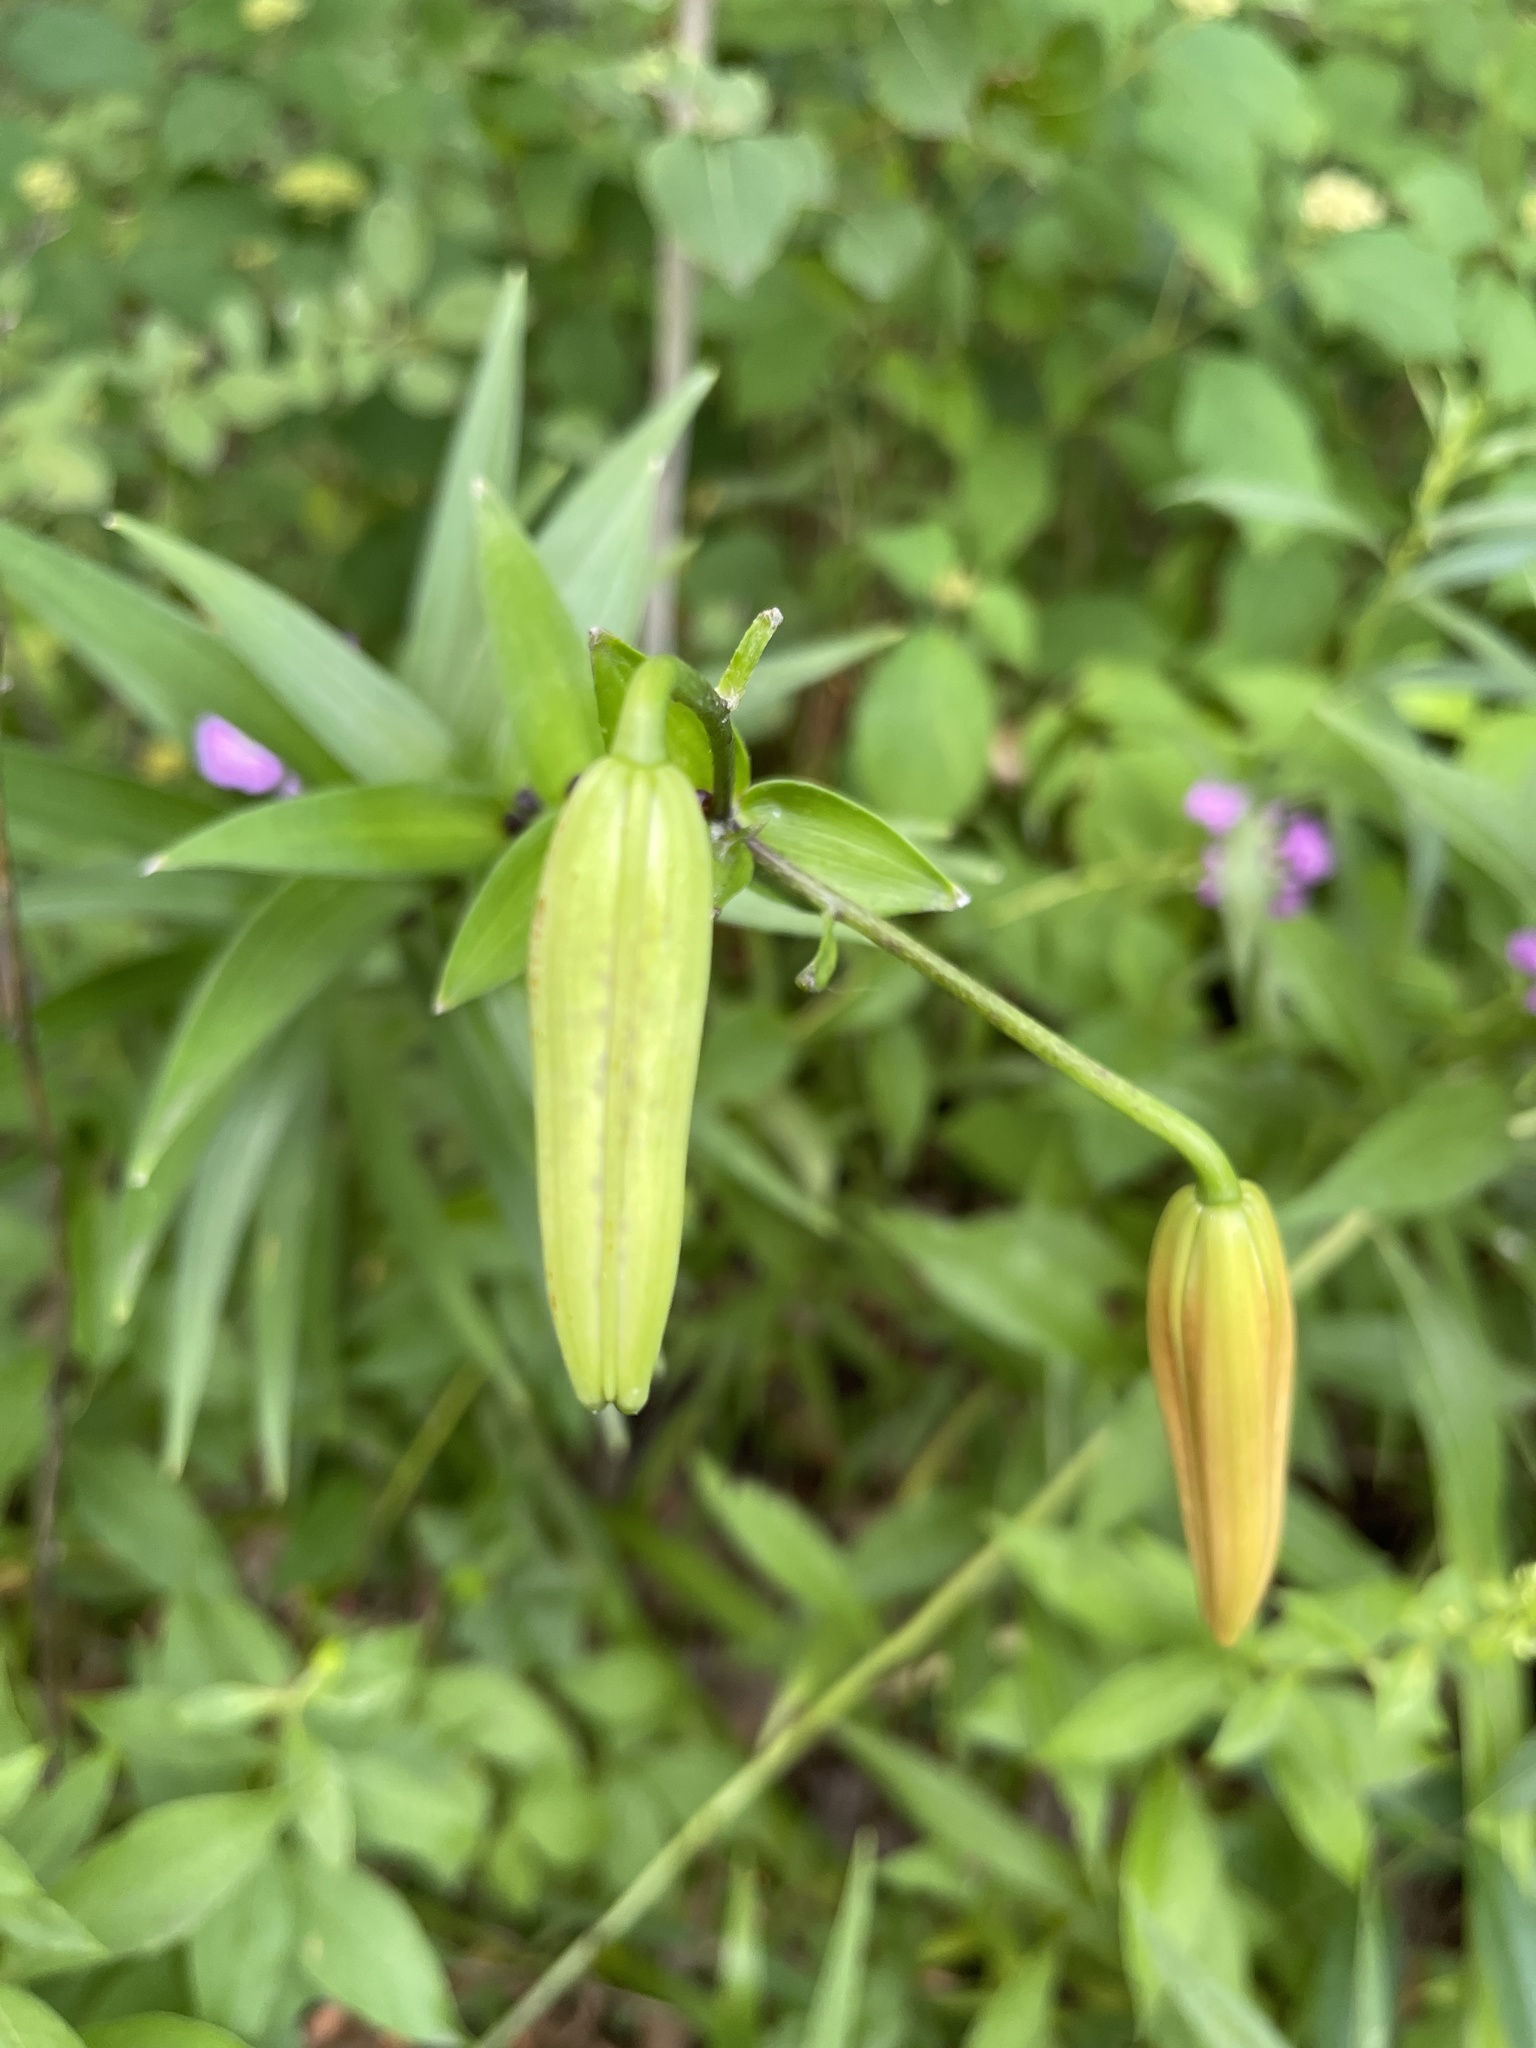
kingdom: Plantae
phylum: Tracheophyta
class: Liliopsida
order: Liliales
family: Liliaceae
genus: Lilium
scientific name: Lilium lancifolium
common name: Tiger lily
